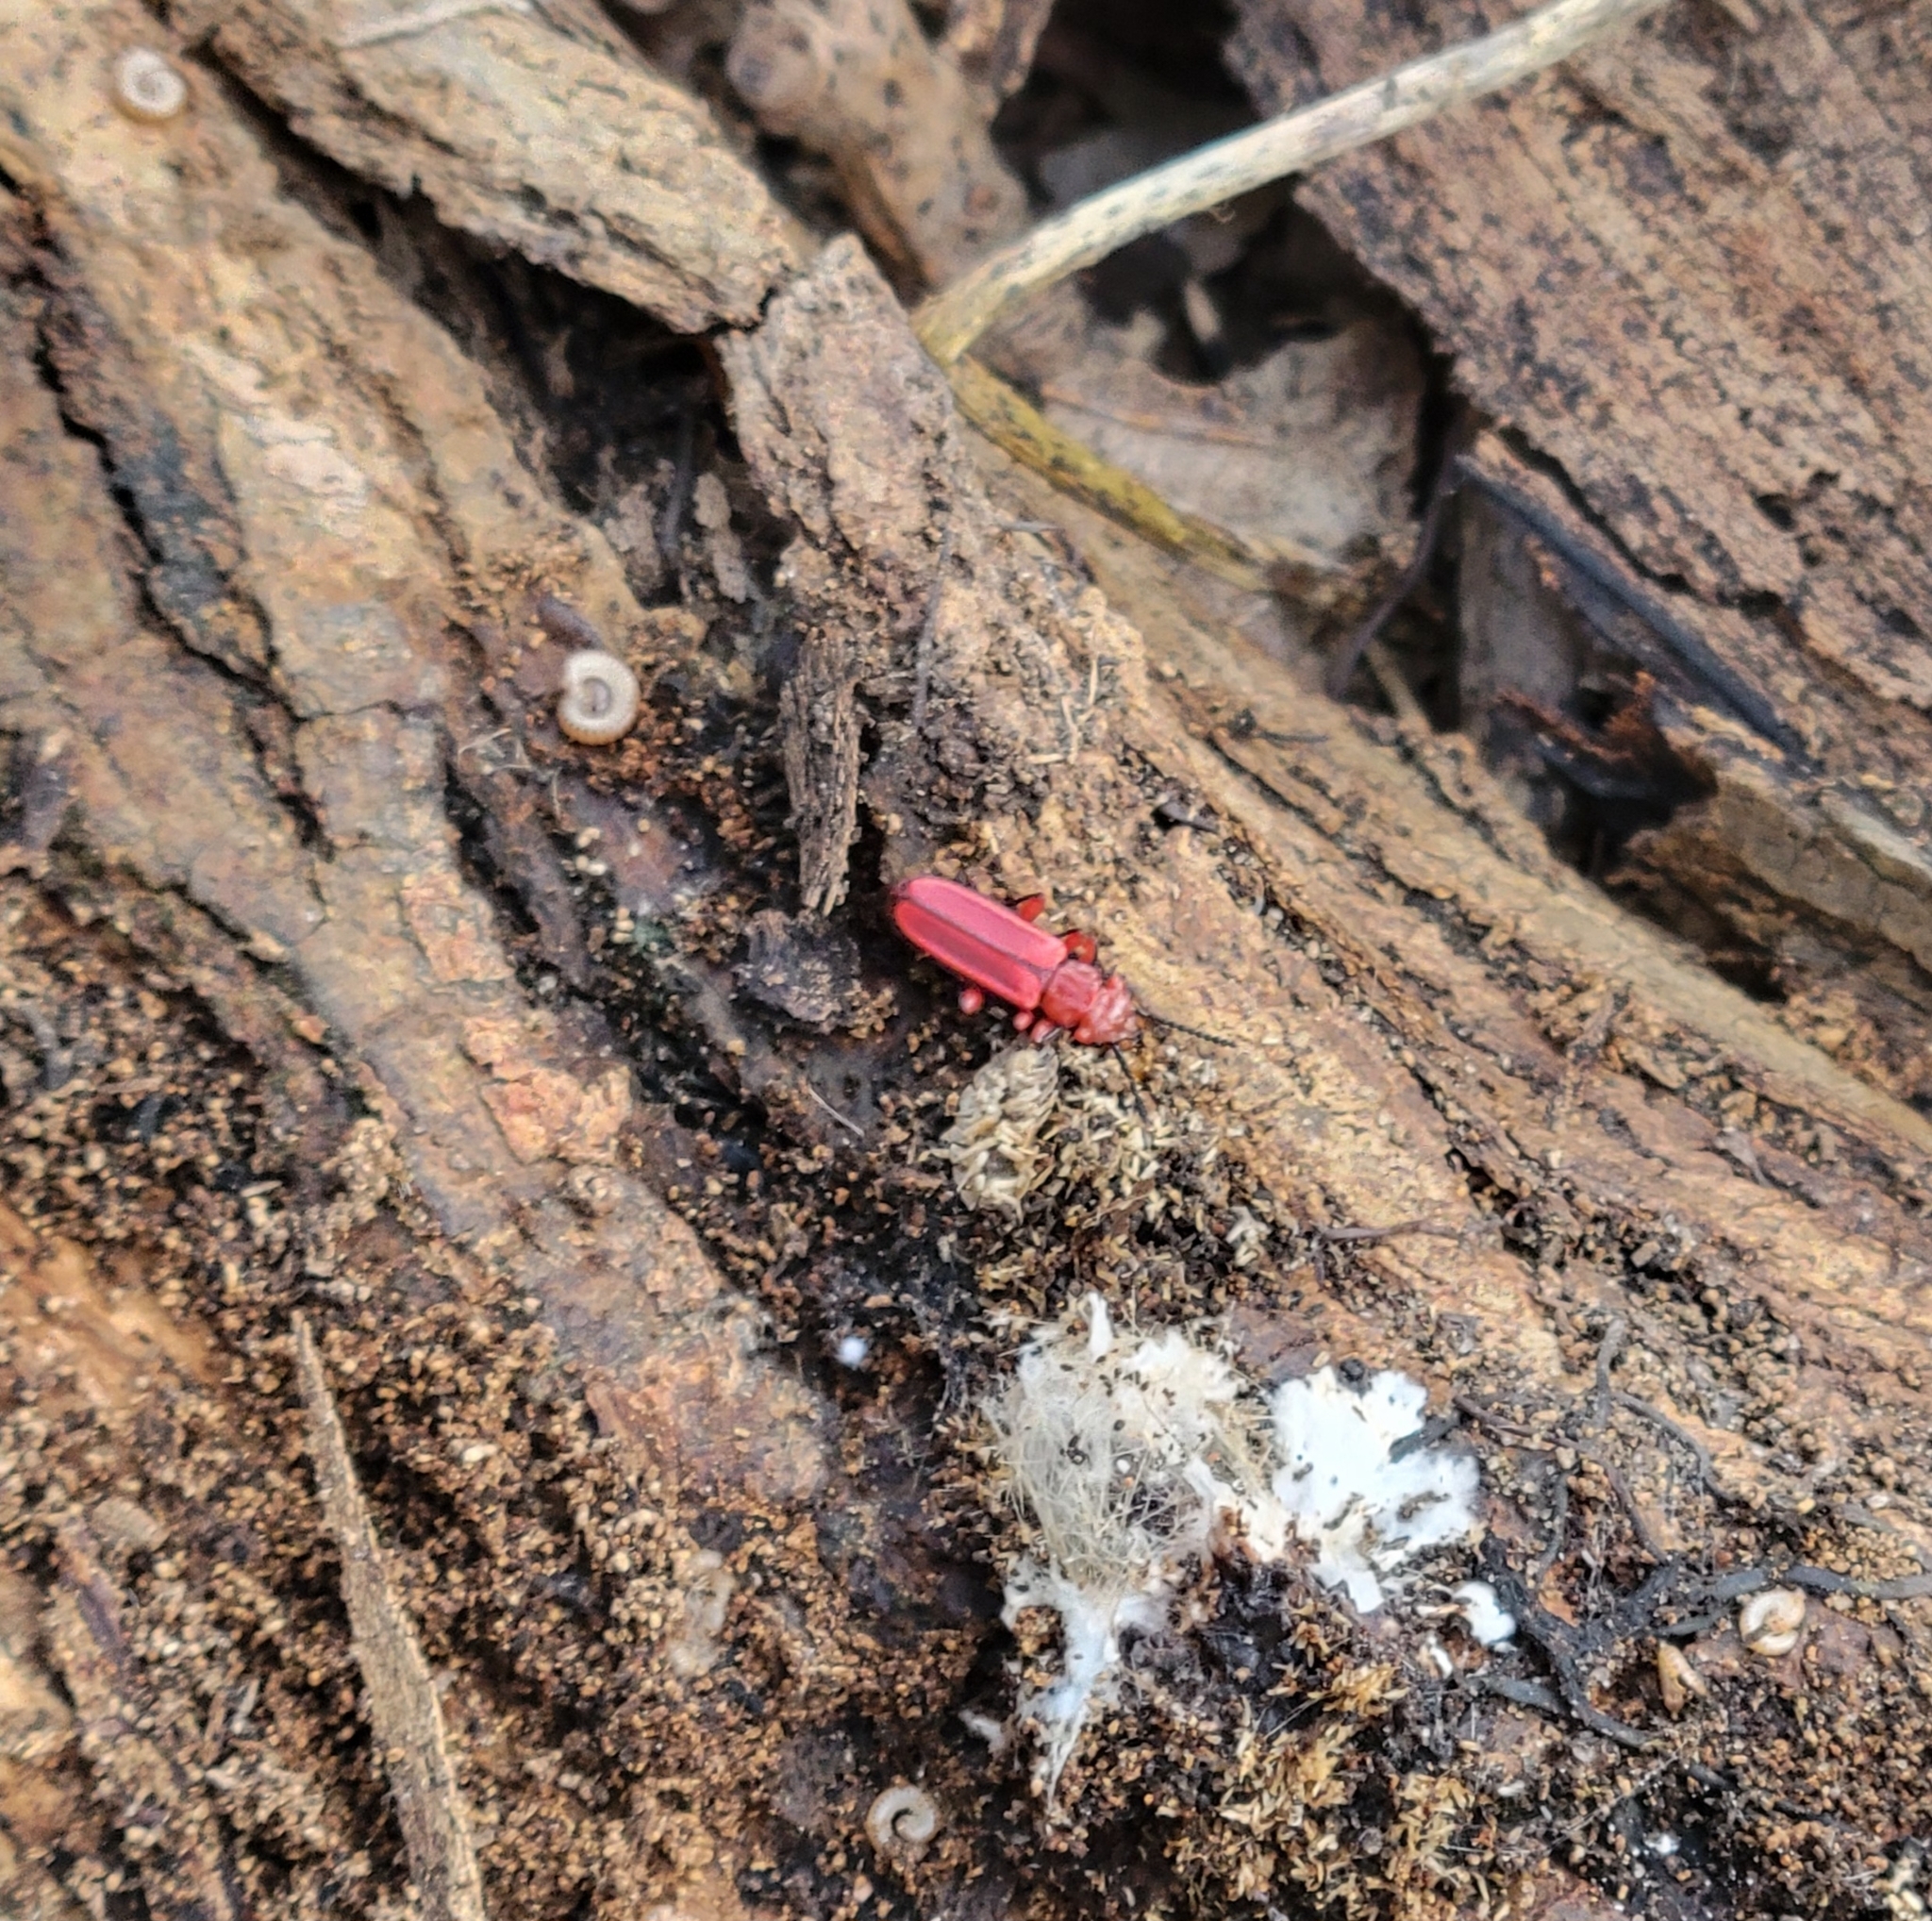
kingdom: Animalia
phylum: Arthropoda
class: Insecta
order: Coleoptera
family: Cucujidae
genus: Cucujus
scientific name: Cucujus clavipes
